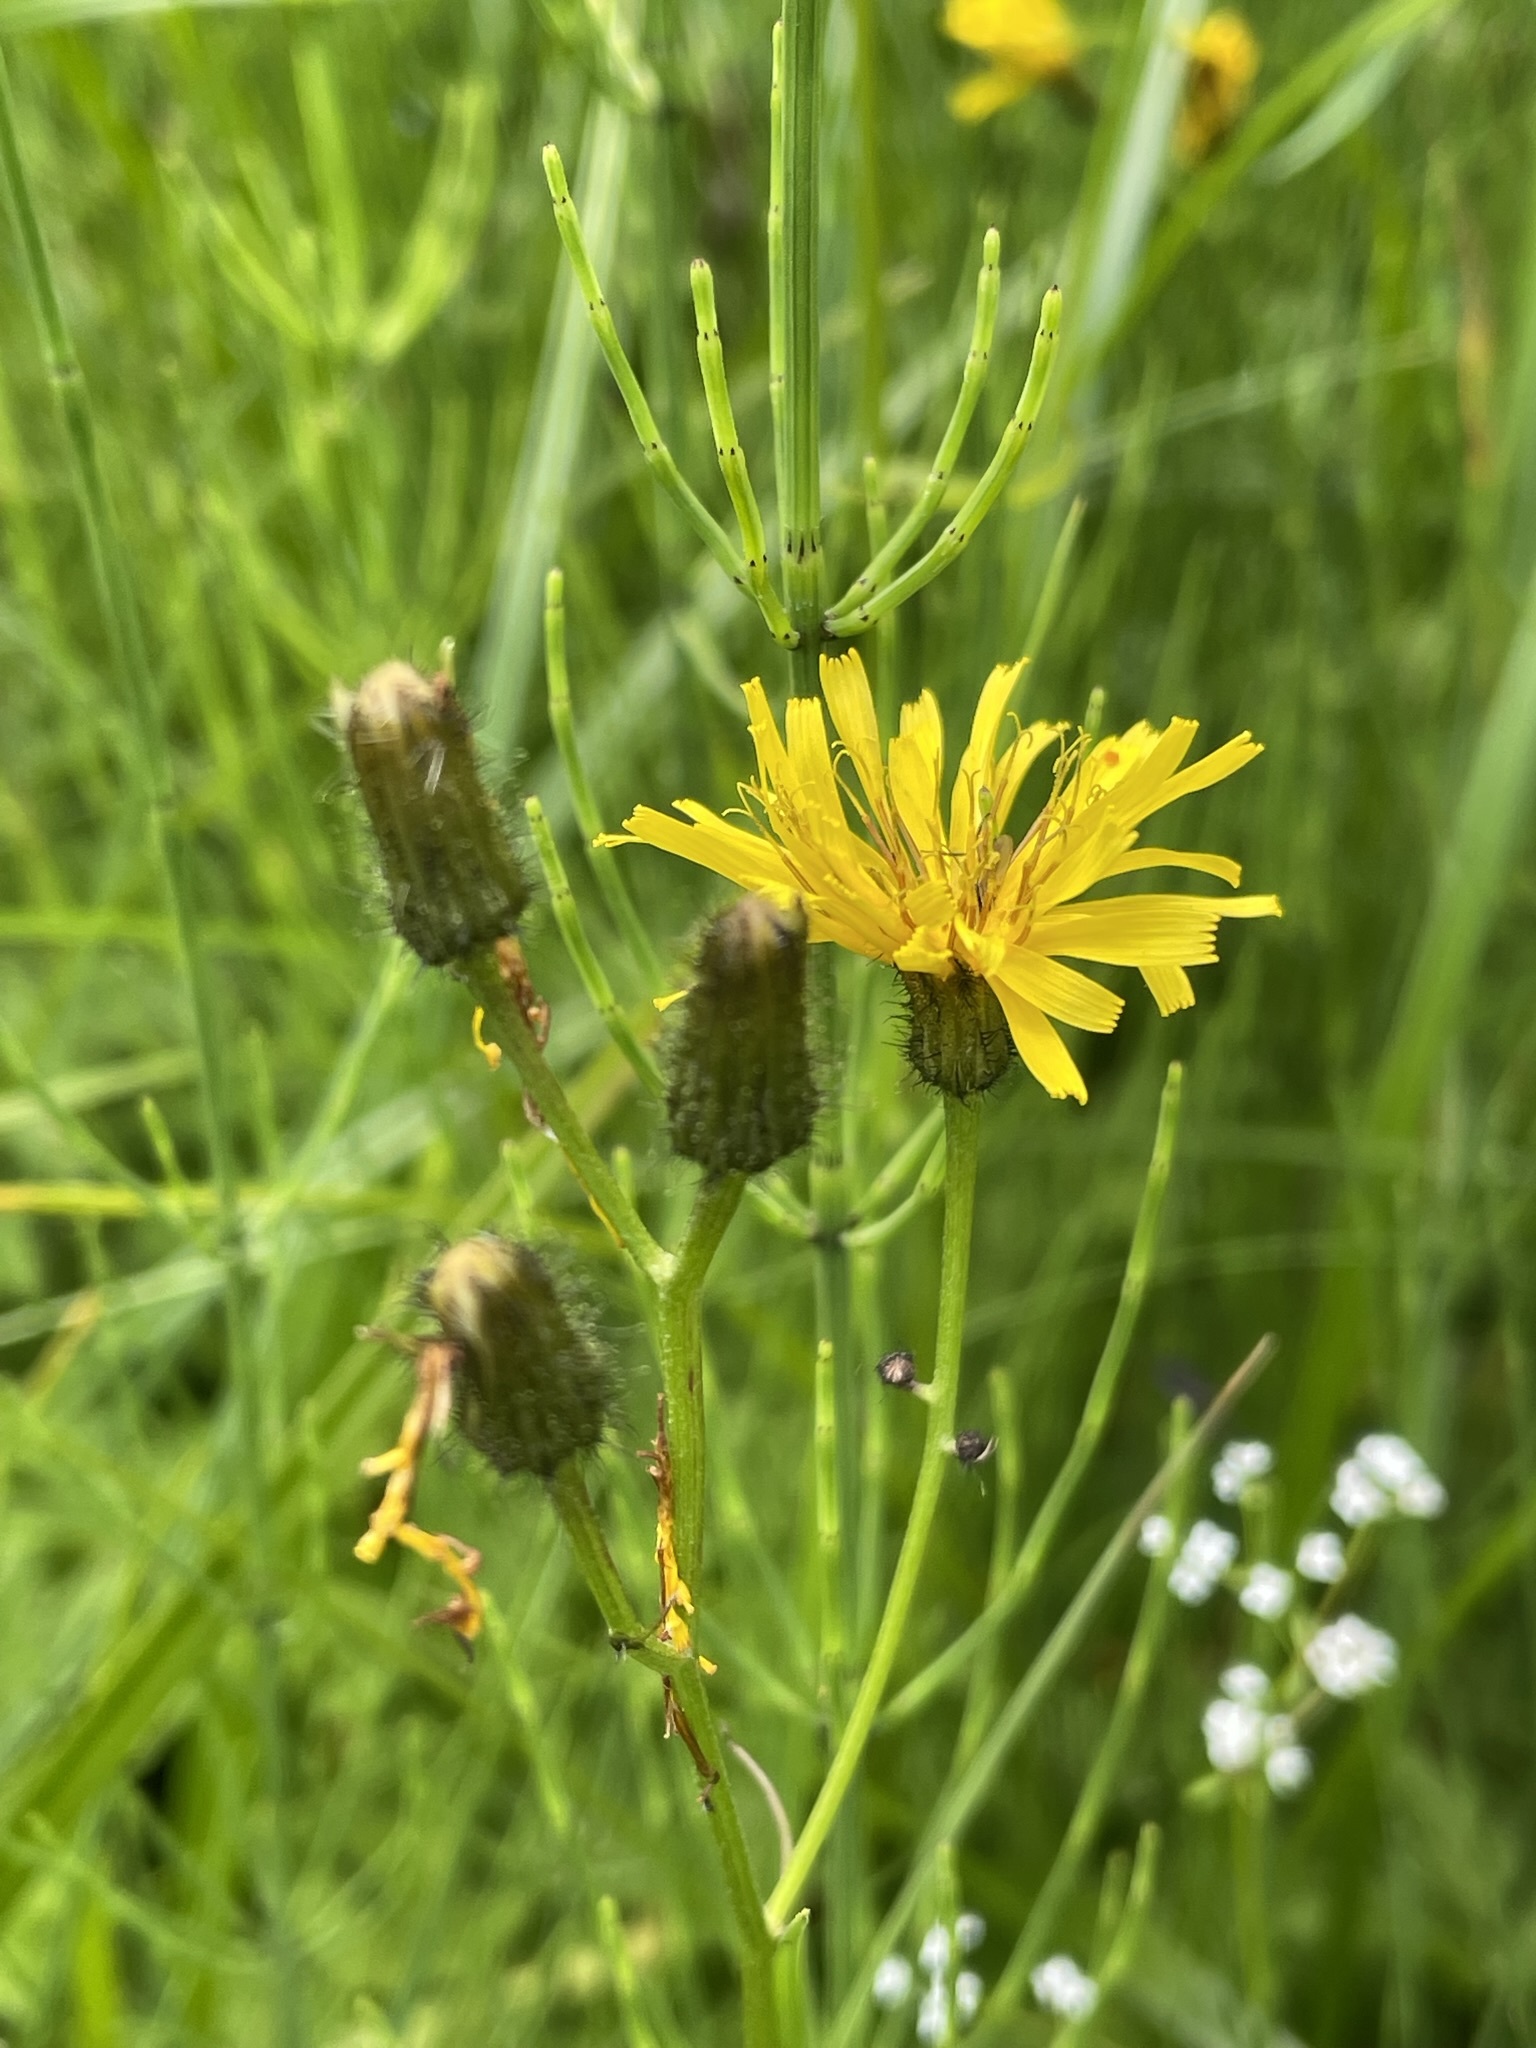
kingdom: Plantae
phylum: Tracheophyta
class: Magnoliopsida
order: Asterales
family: Asteraceae
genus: Crepis
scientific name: Crepis paludosa
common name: Marsh hawk's-beard
